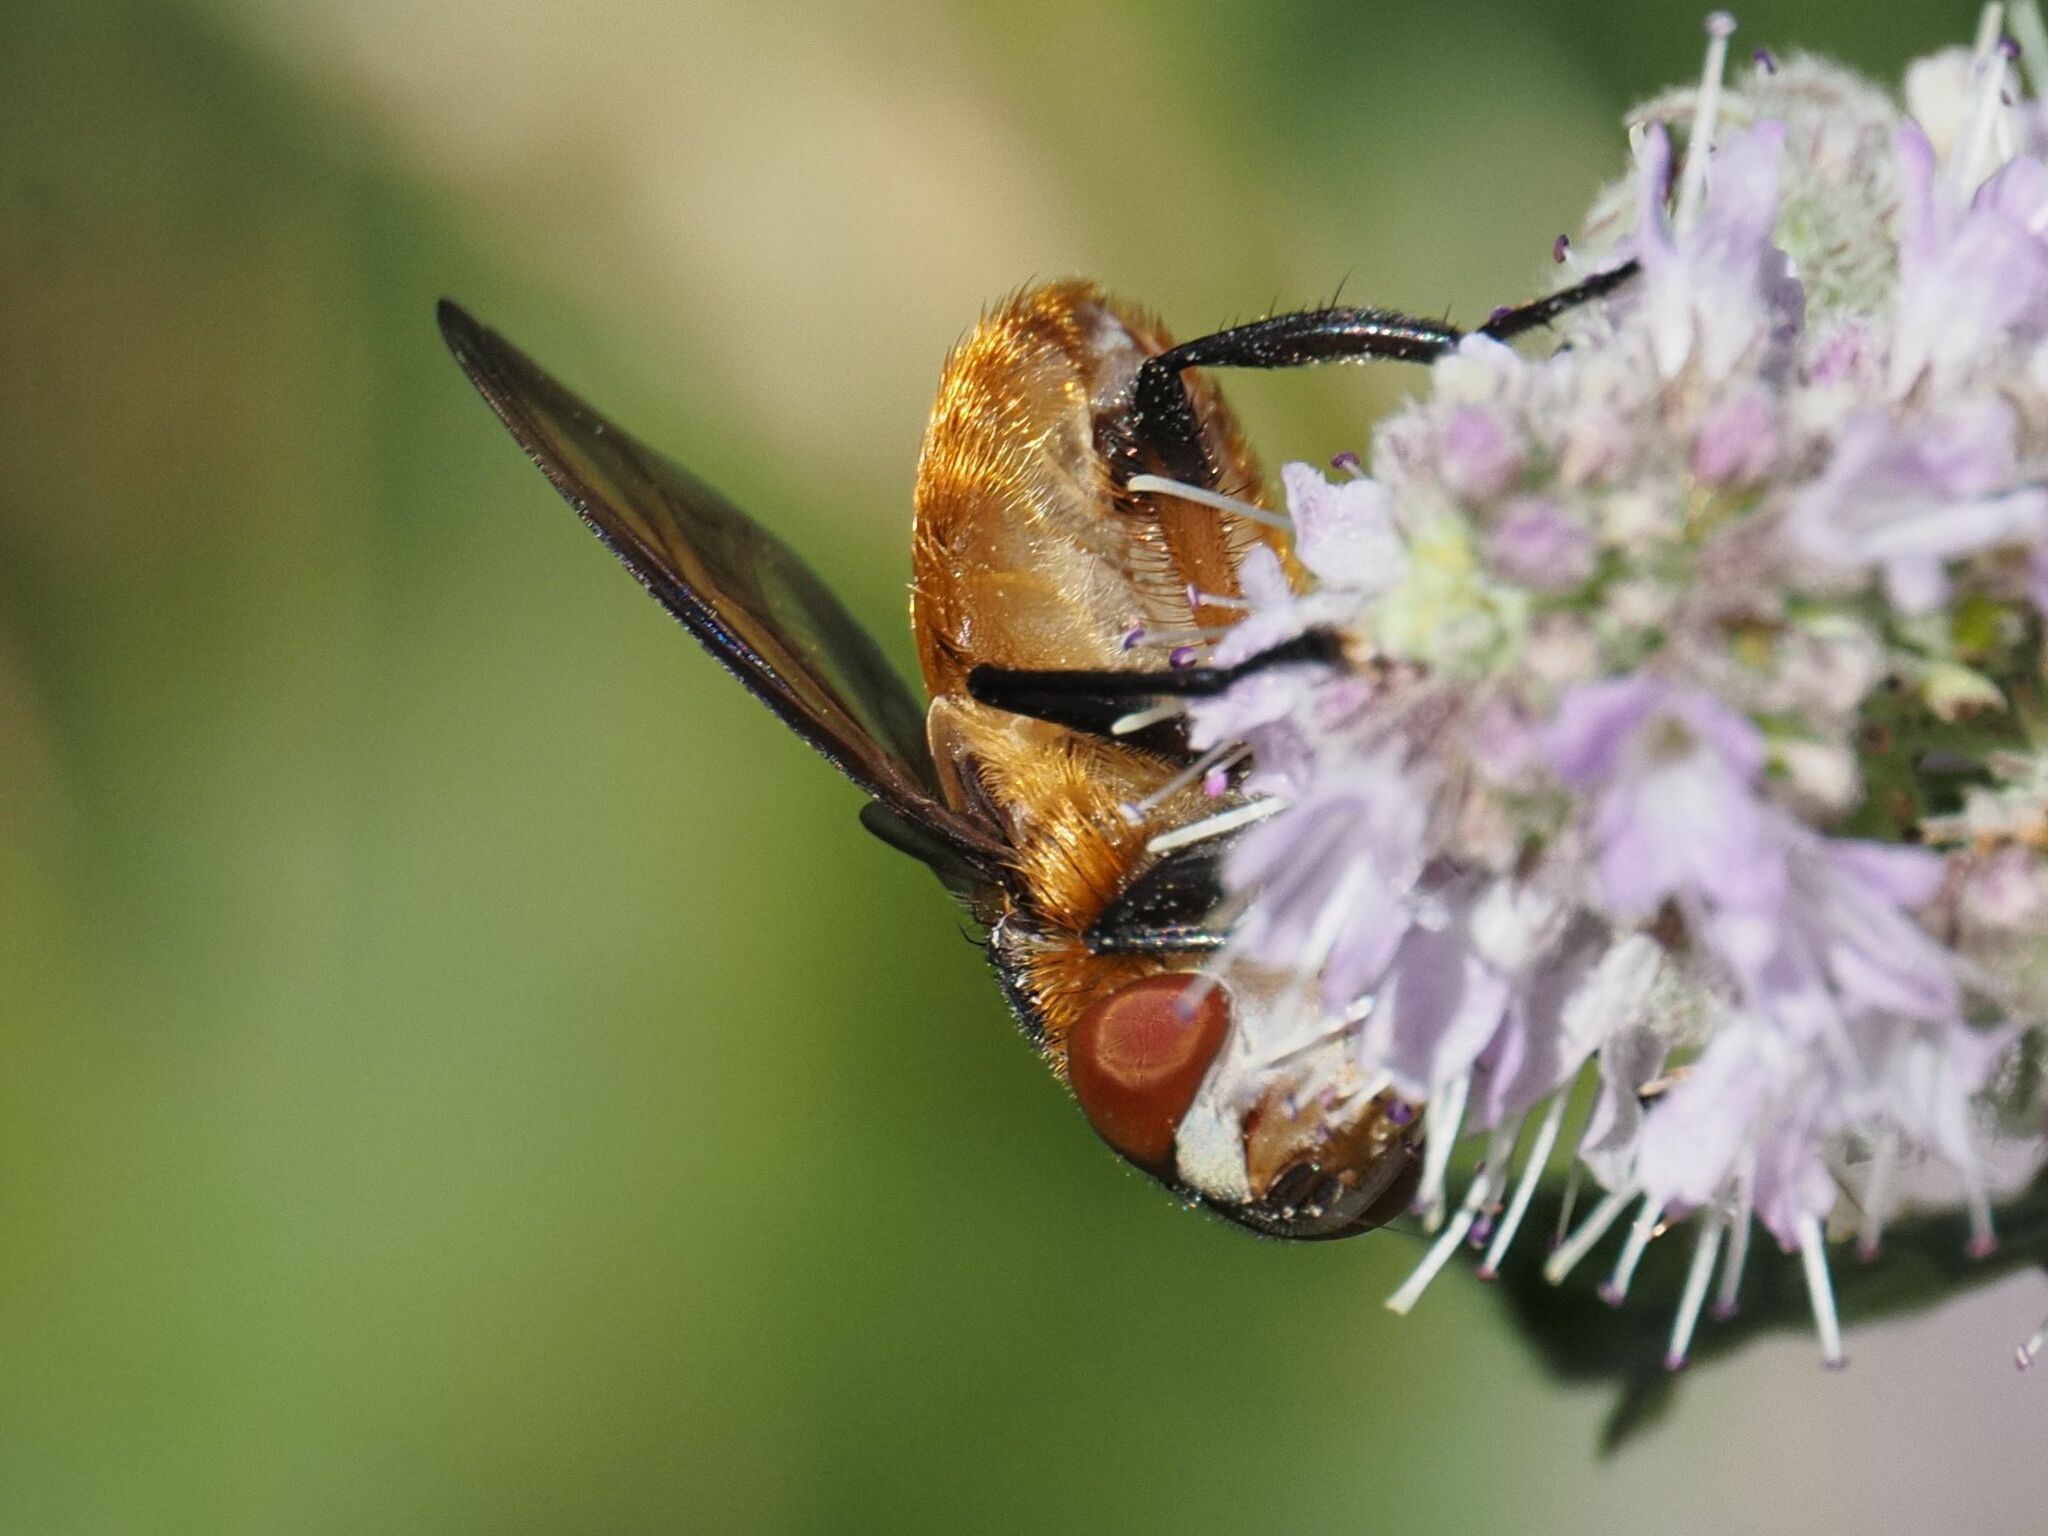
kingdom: Animalia
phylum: Arthropoda
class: Insecta
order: Diptera
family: Tachinidae
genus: Phasia
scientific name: Phasia hemiptera
